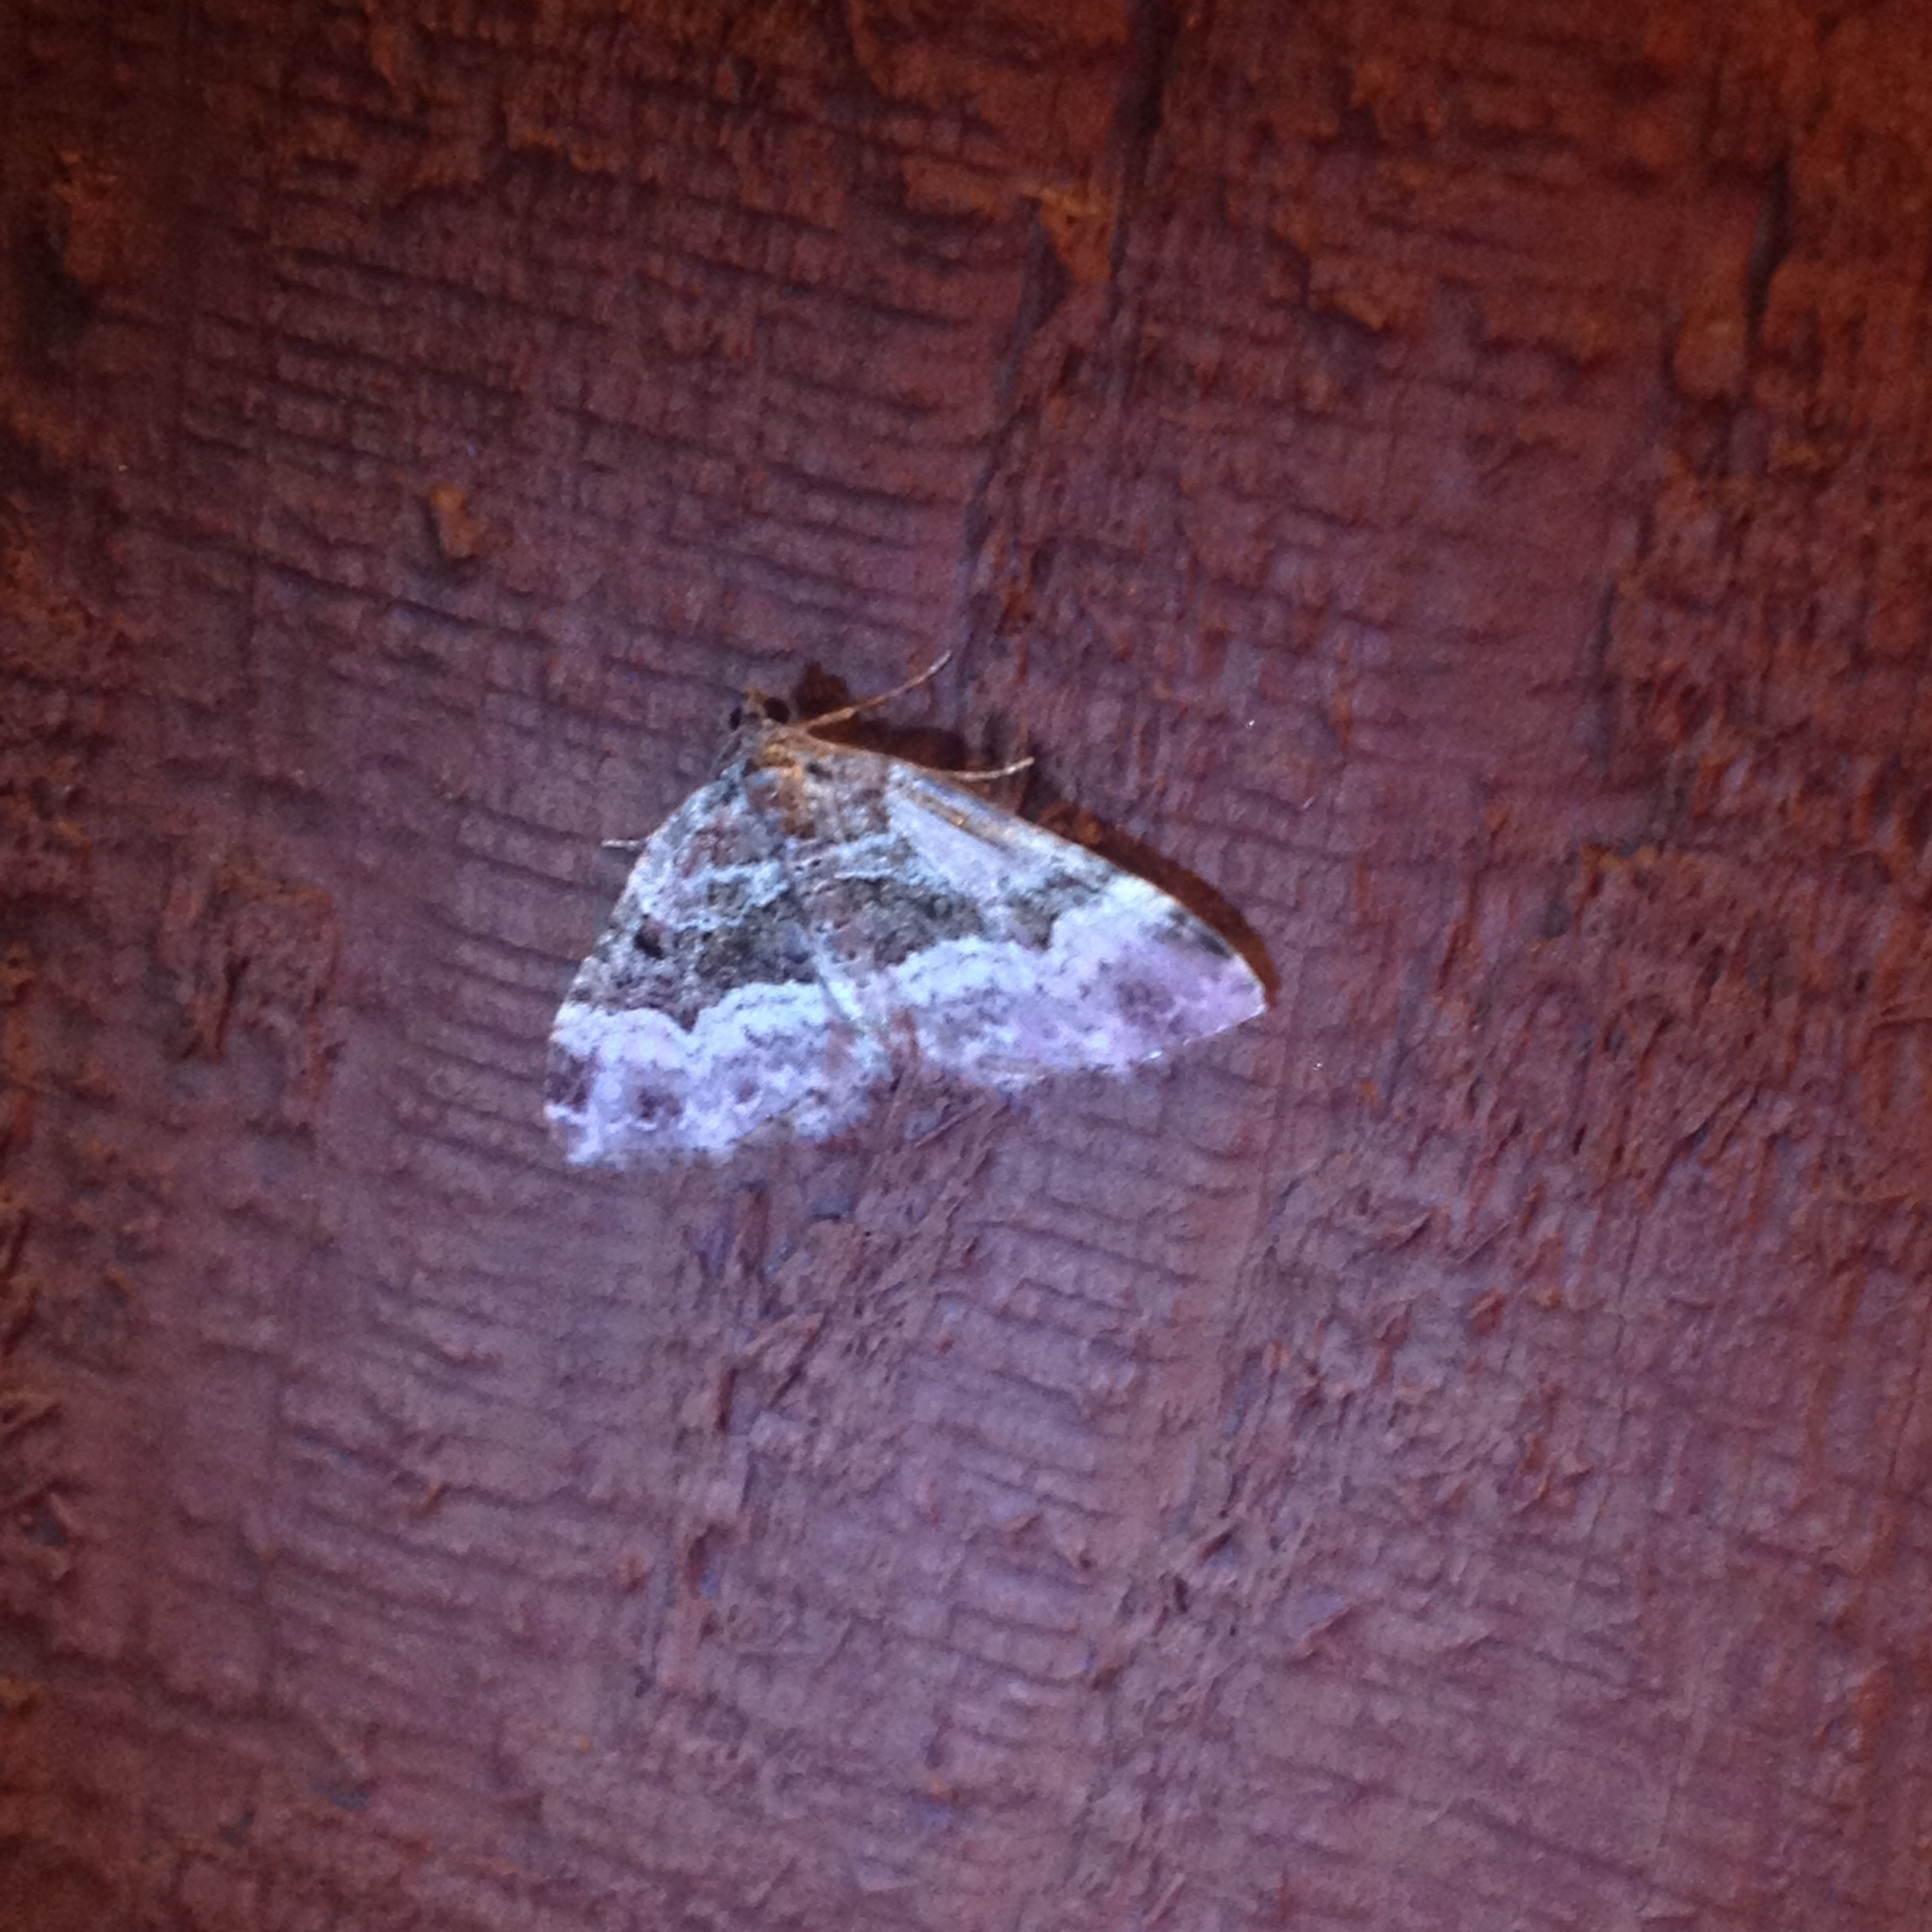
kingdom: Animalia
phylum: Arthropoda
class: Insecta
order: Lepidoptera
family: Geometridae
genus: Epirrhoe
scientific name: Epirrhoe alternata
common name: Common carpet
